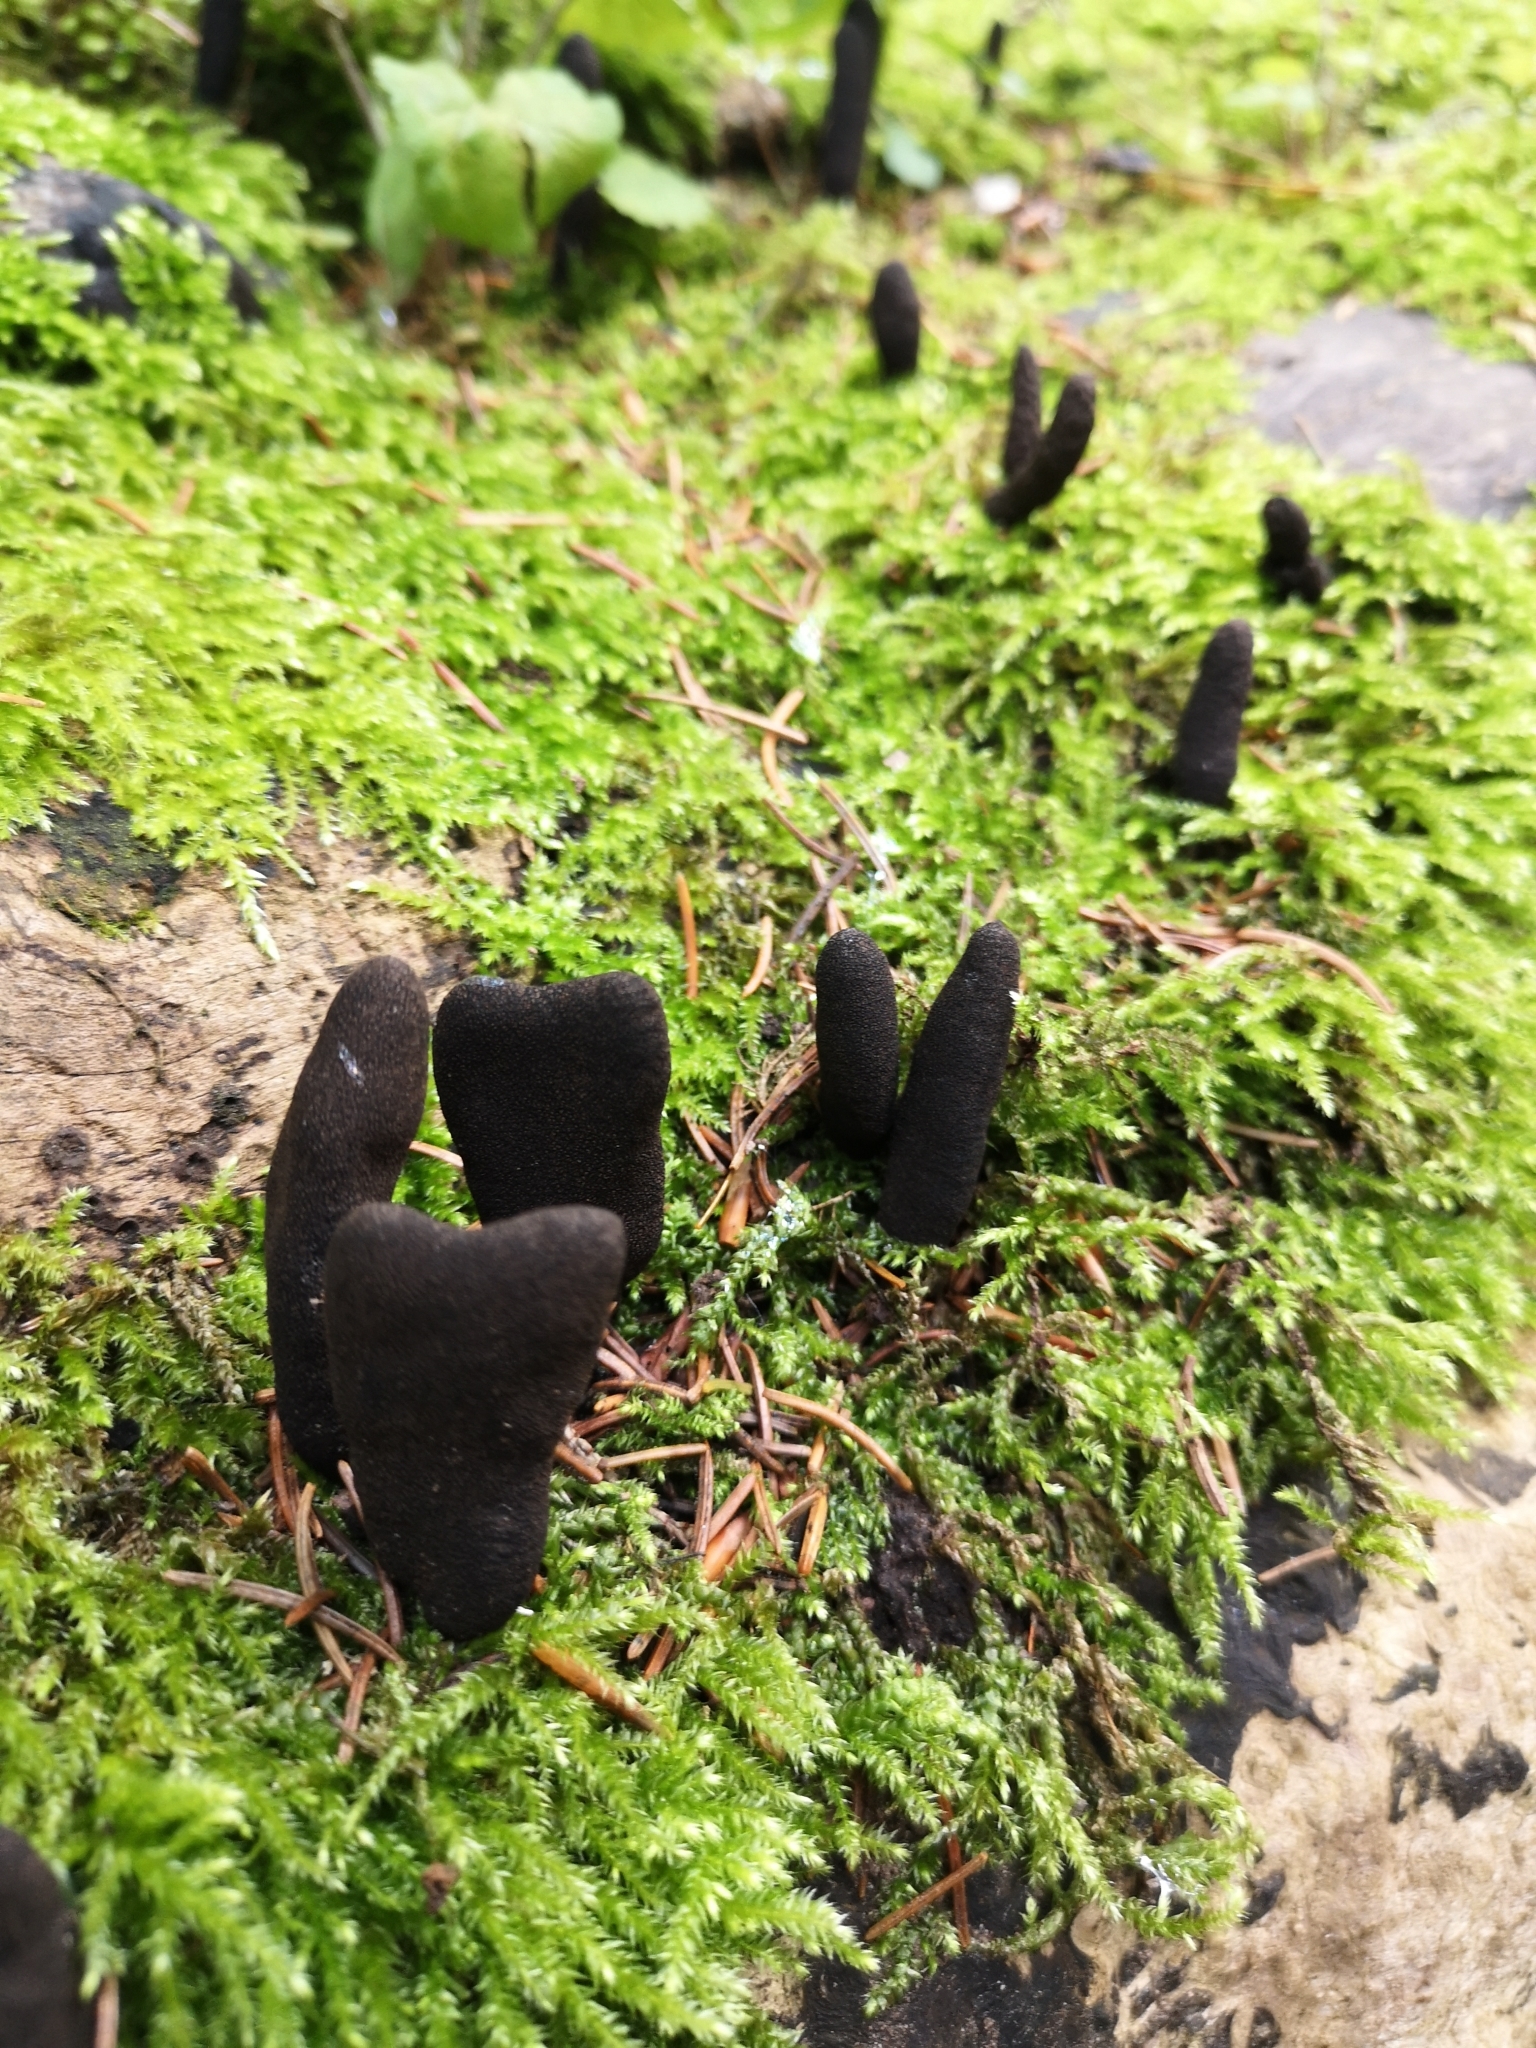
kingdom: Fungi
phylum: Ascomycota
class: Sordariomycetes
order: Xylariales
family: Xylariaceae
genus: Xylaria
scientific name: Xylaria polymorpha
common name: Dead man's fingers
